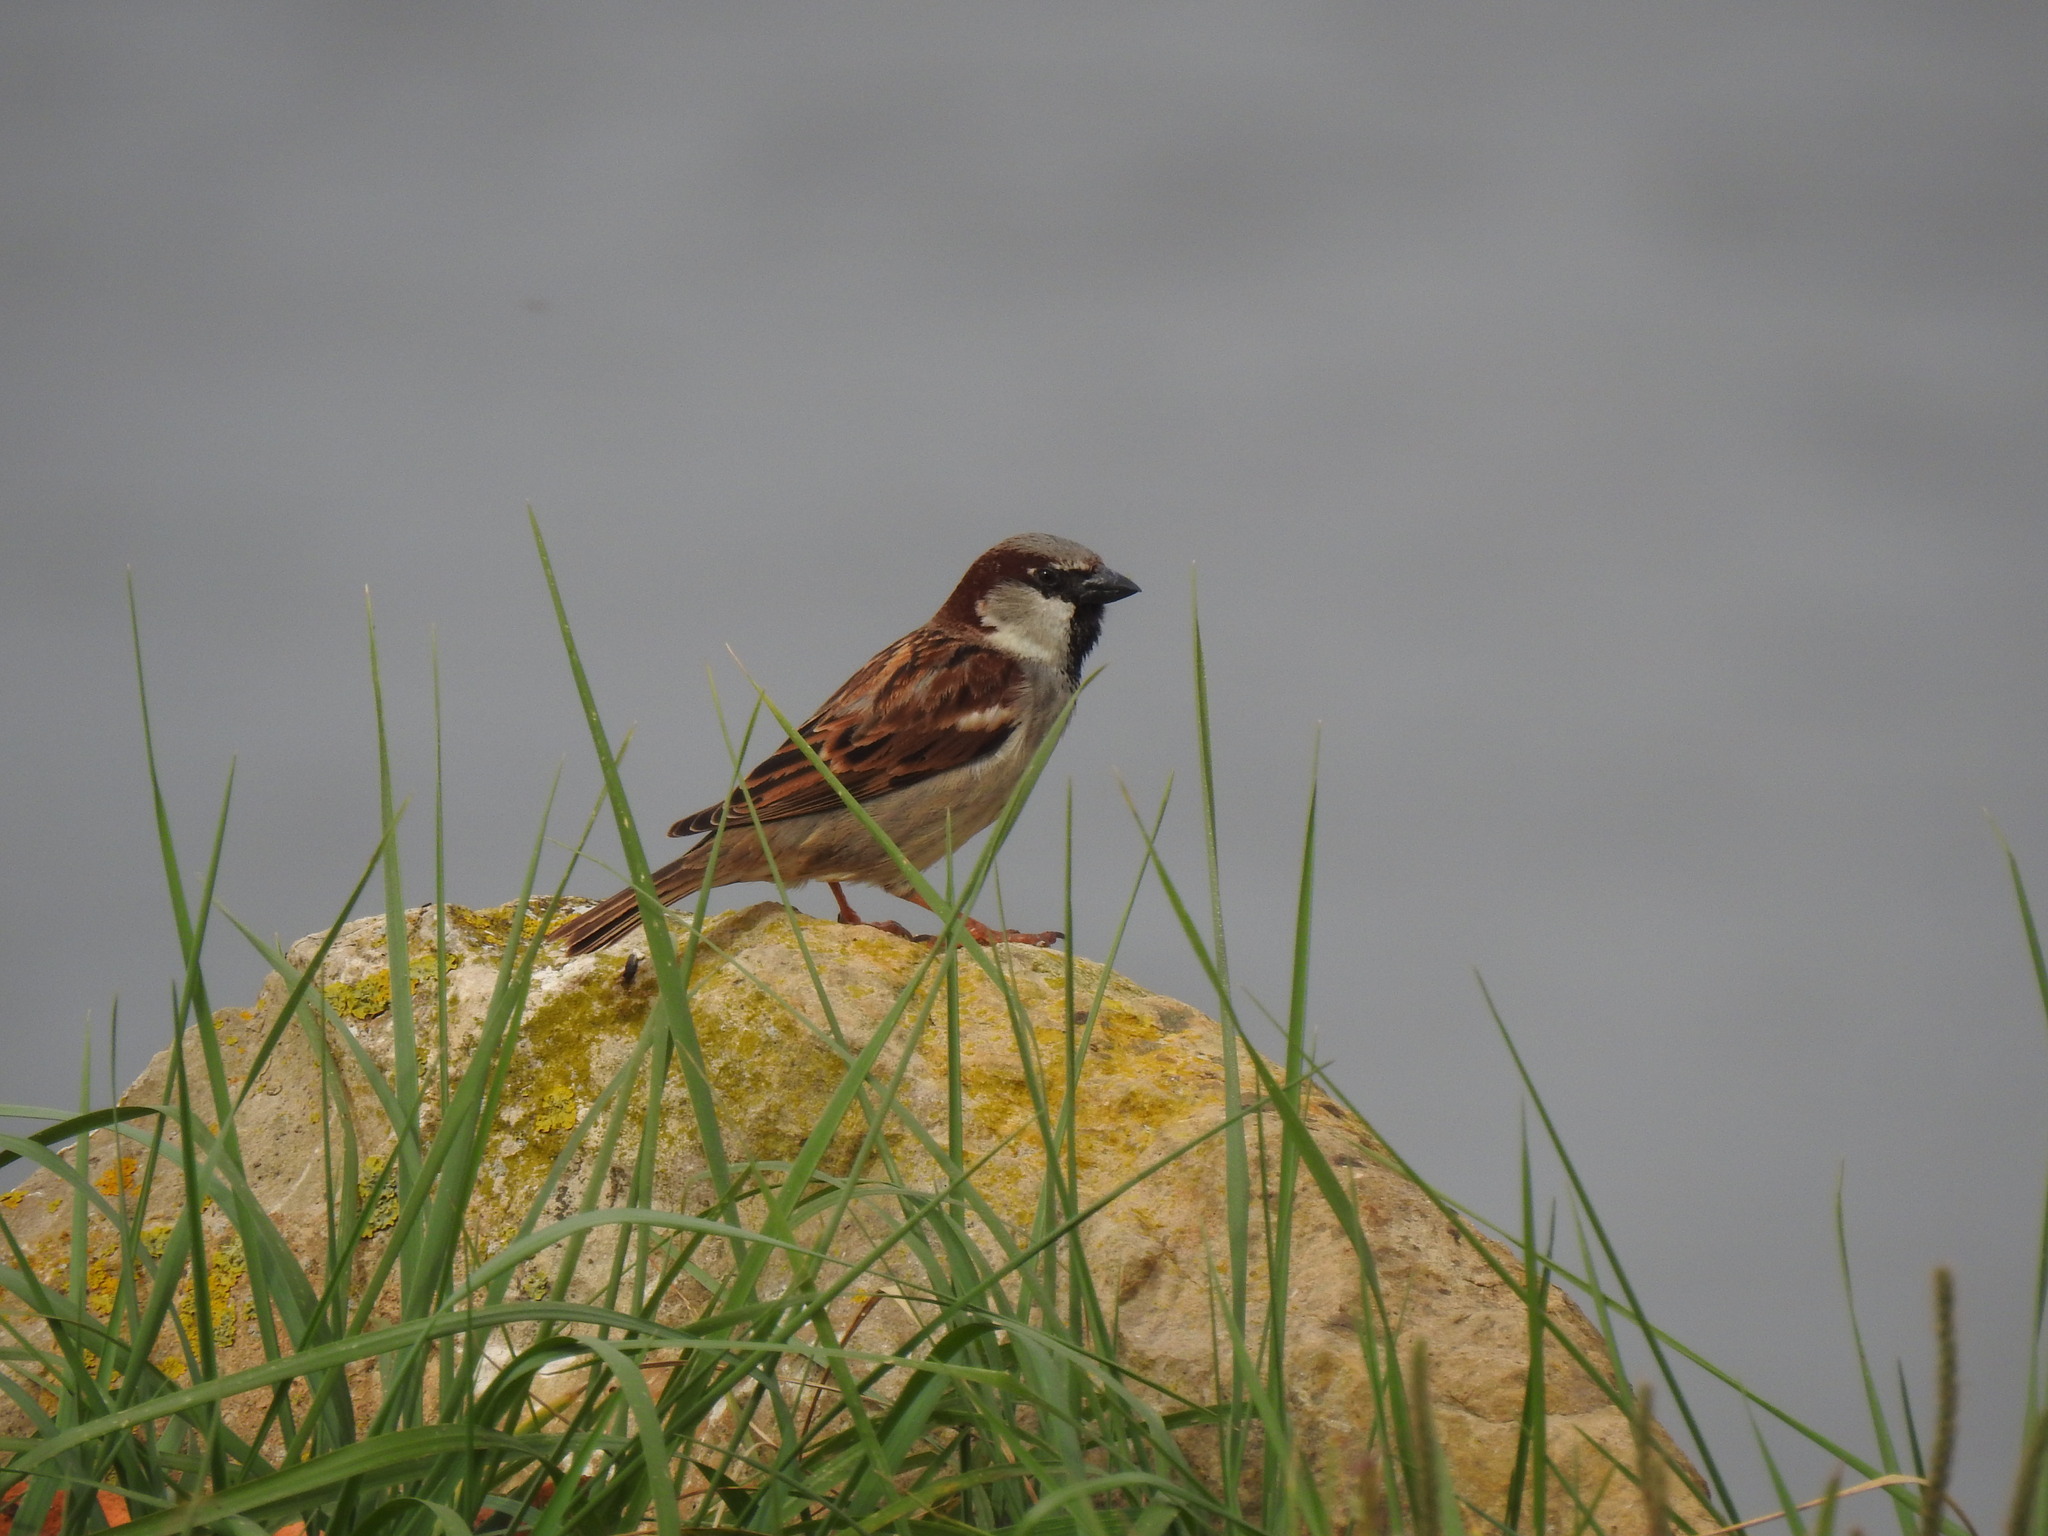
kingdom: Animalia
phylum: Chordata
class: Aves
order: Passeriformes
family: Passeridae
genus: Passer
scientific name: Passer domesticus
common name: House sparrow
